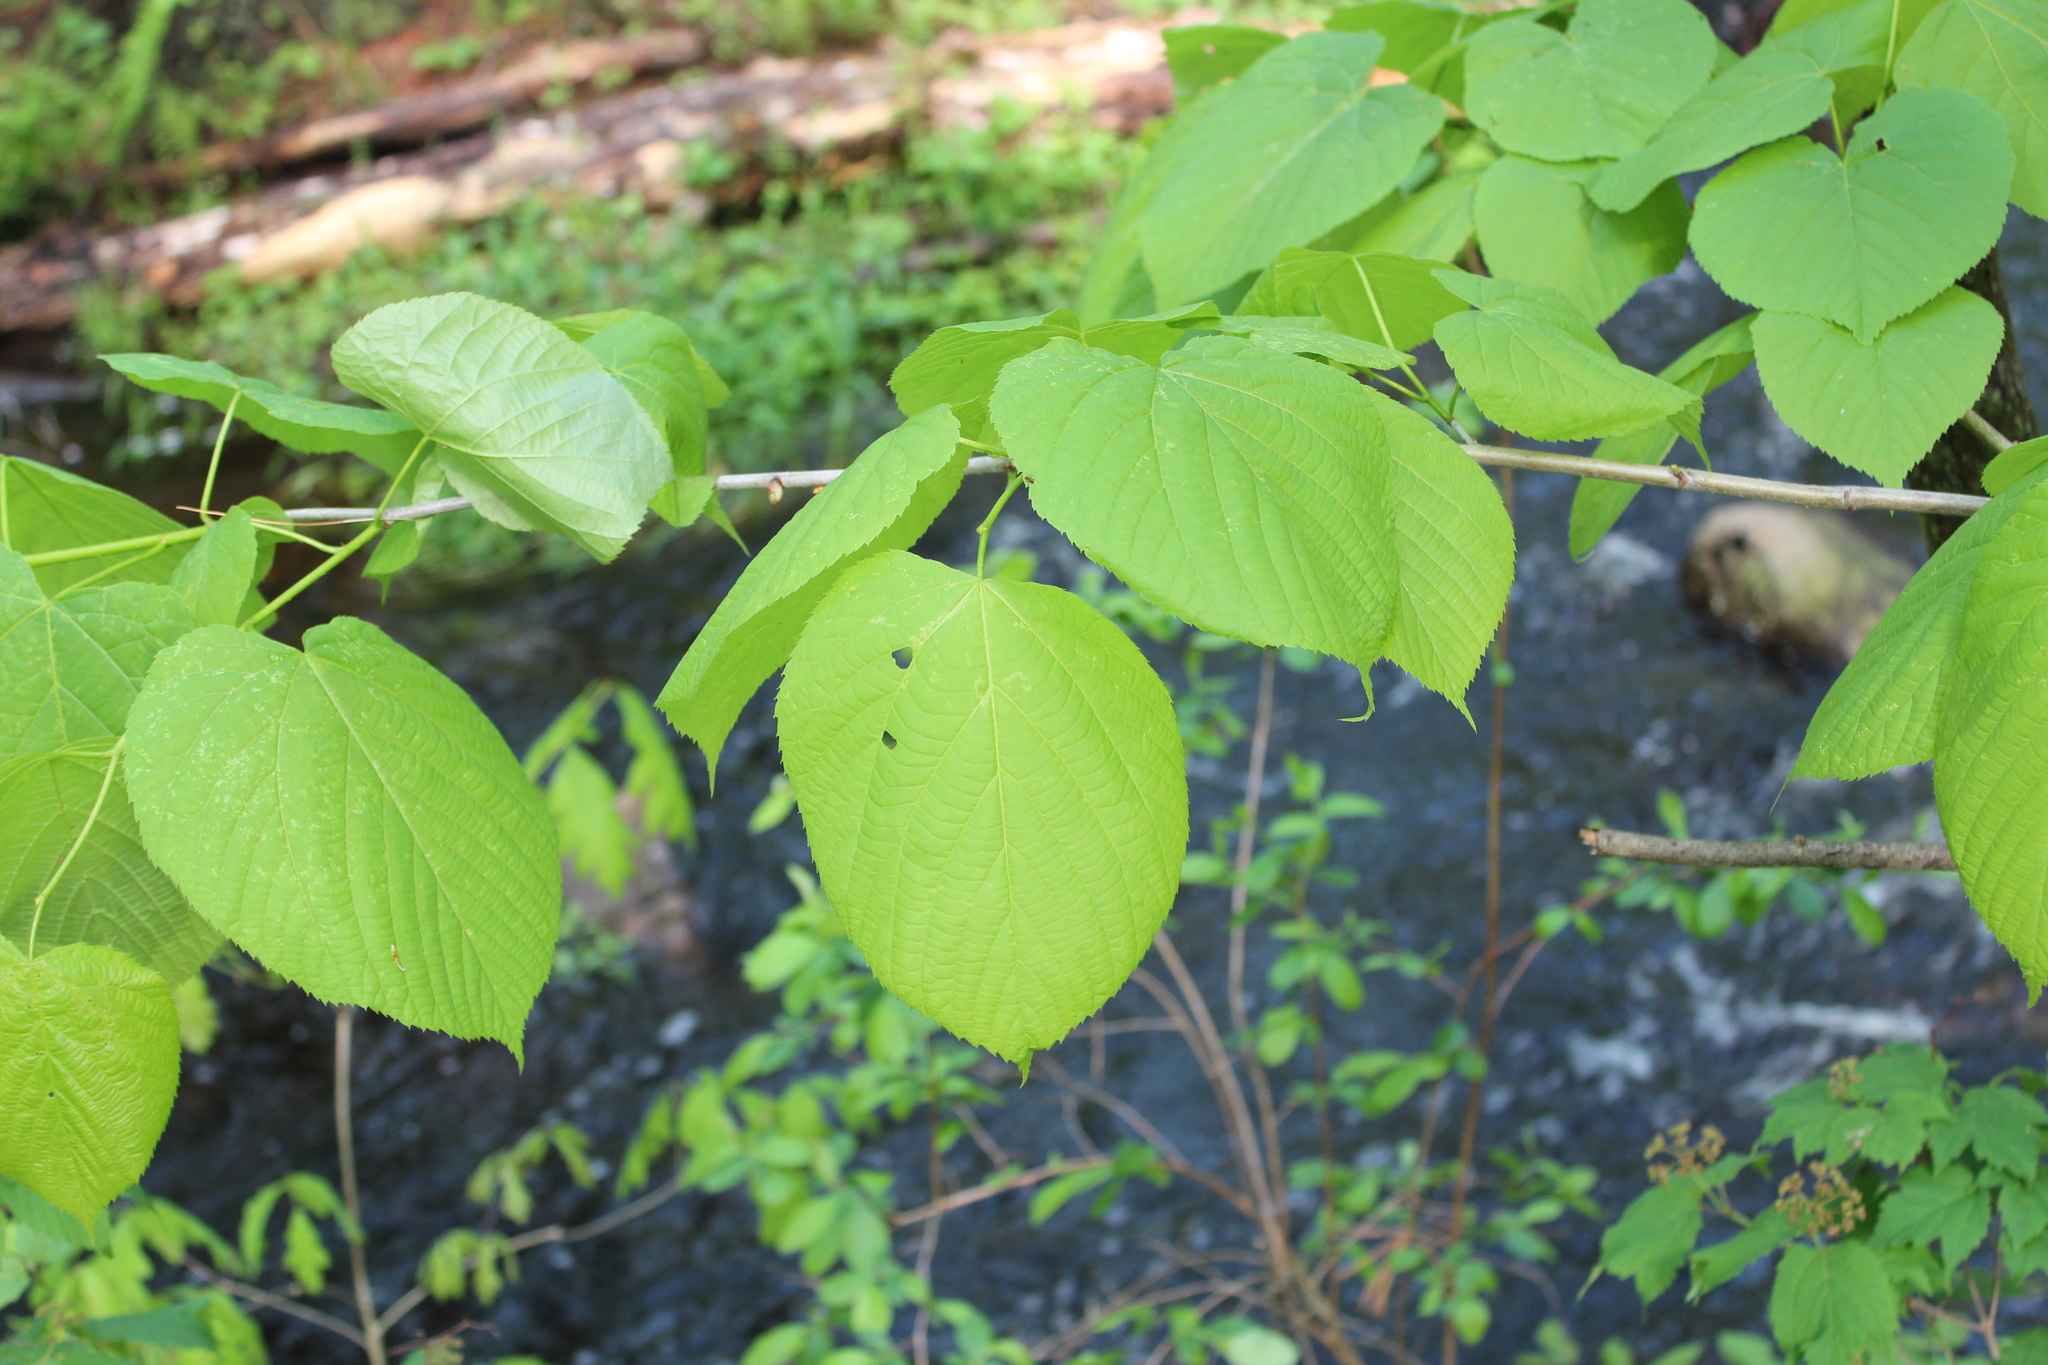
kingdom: Plantae
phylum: Tracheophyta
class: Magnoliopsida
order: Malvales
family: Malvaceae
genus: Tilia
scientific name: Tilia americana
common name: Basswood
